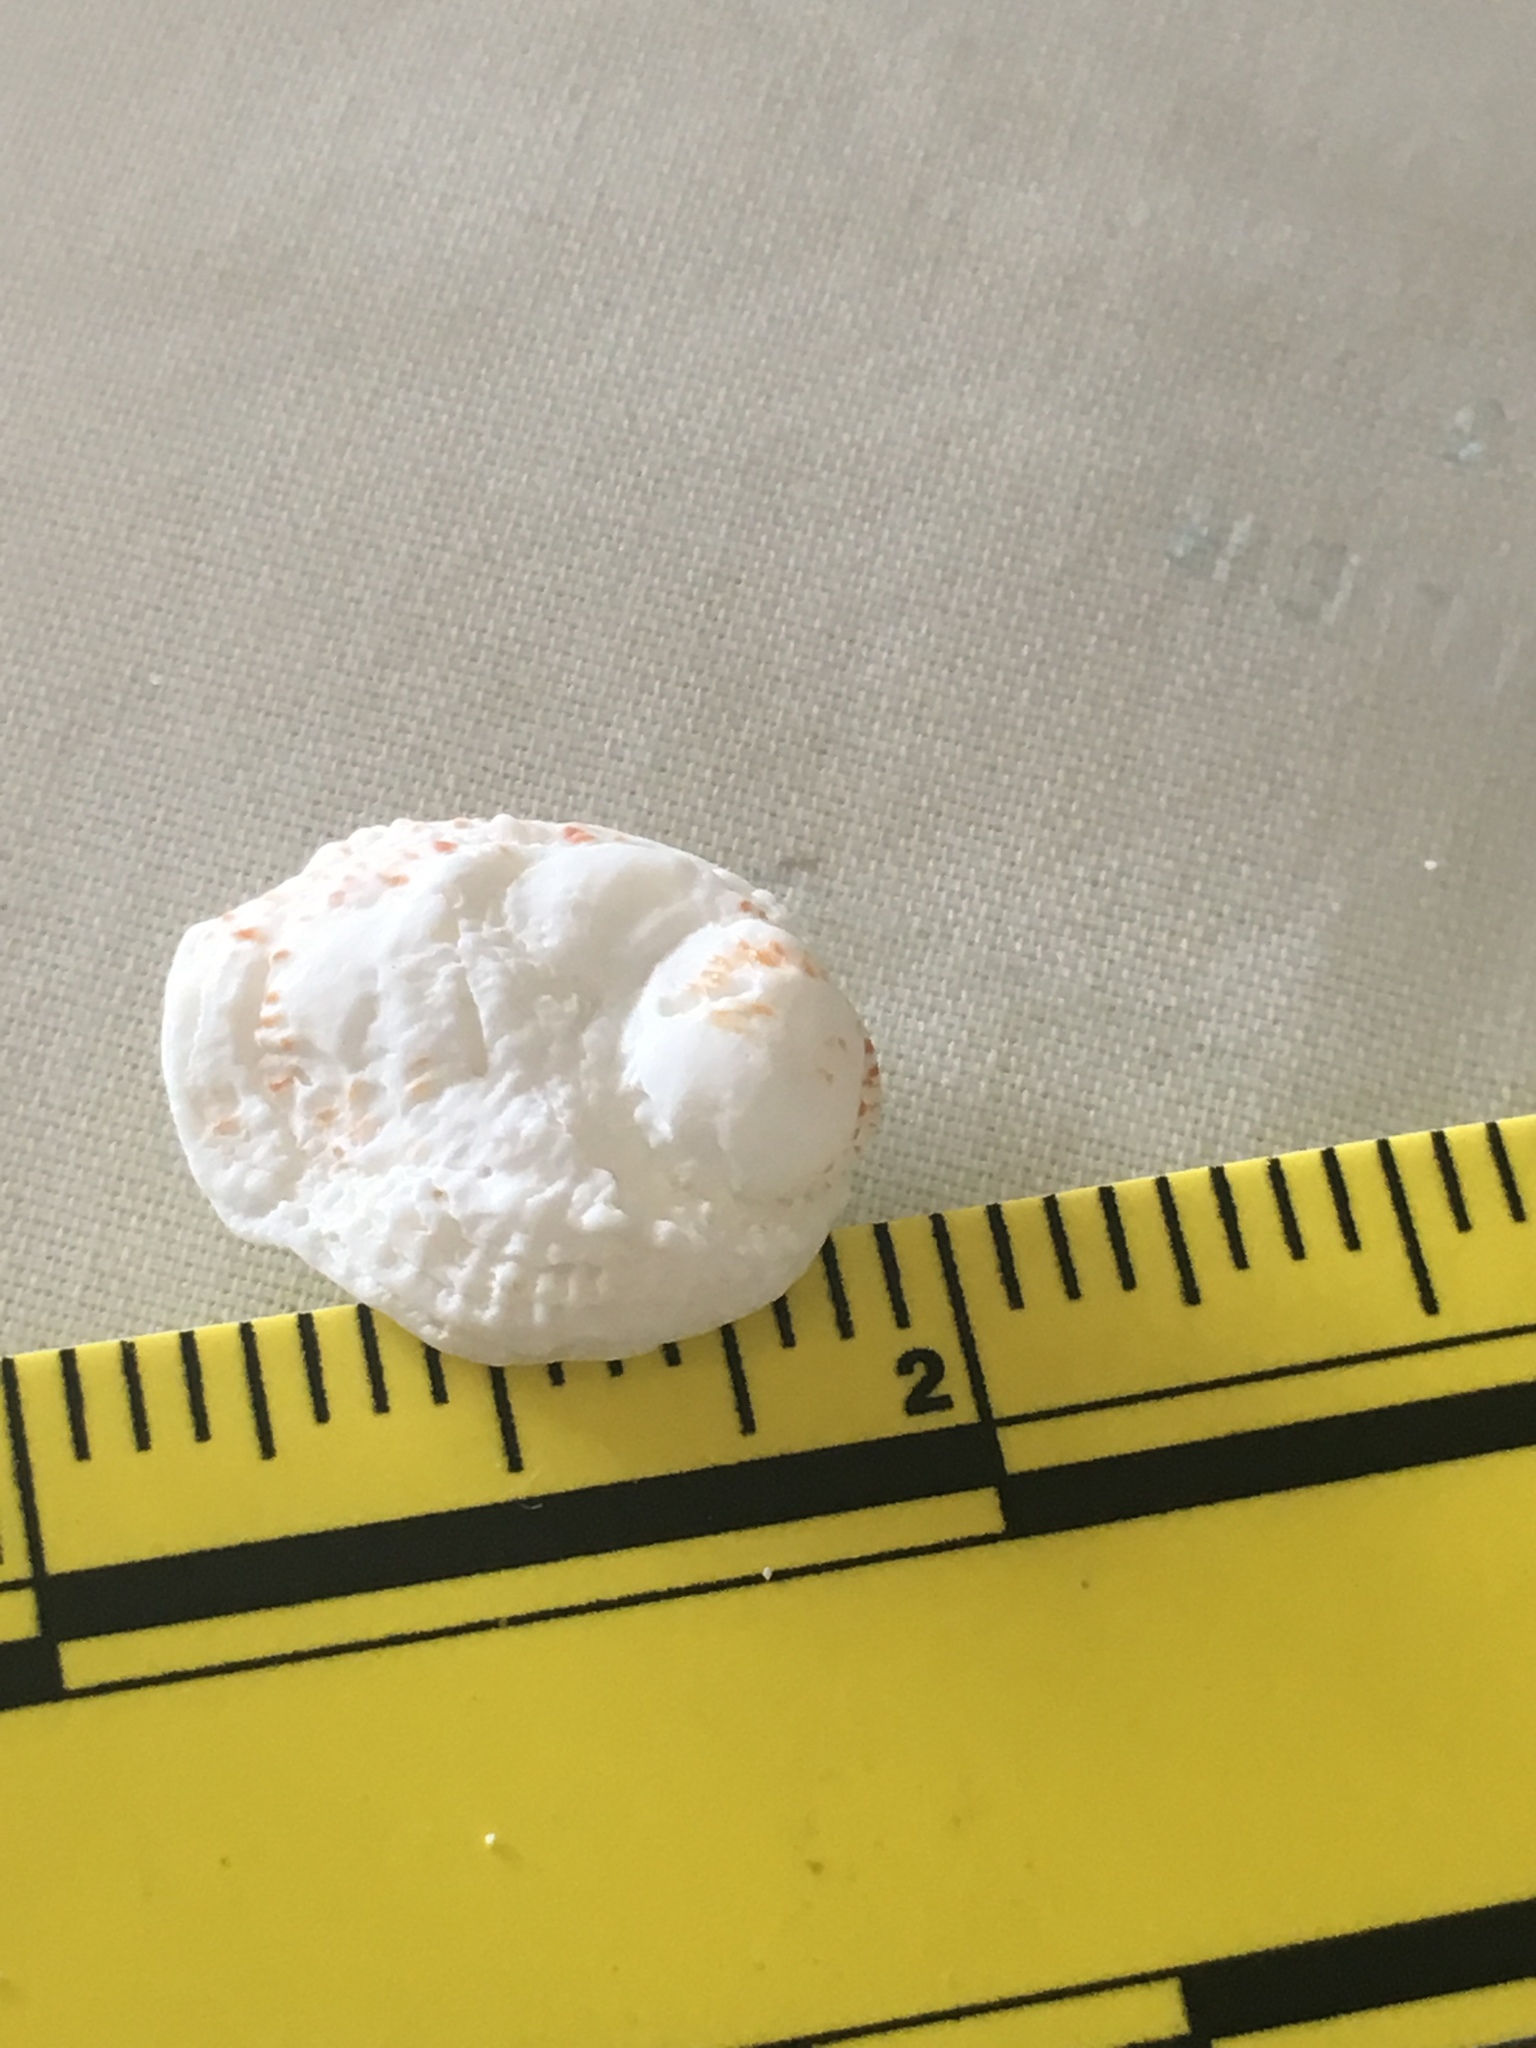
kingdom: Animalia
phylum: Mollusca
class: Bivalvia
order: Venerida
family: Chamidae
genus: Chama
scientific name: Chama congregata
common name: Corrugate jewelbox
